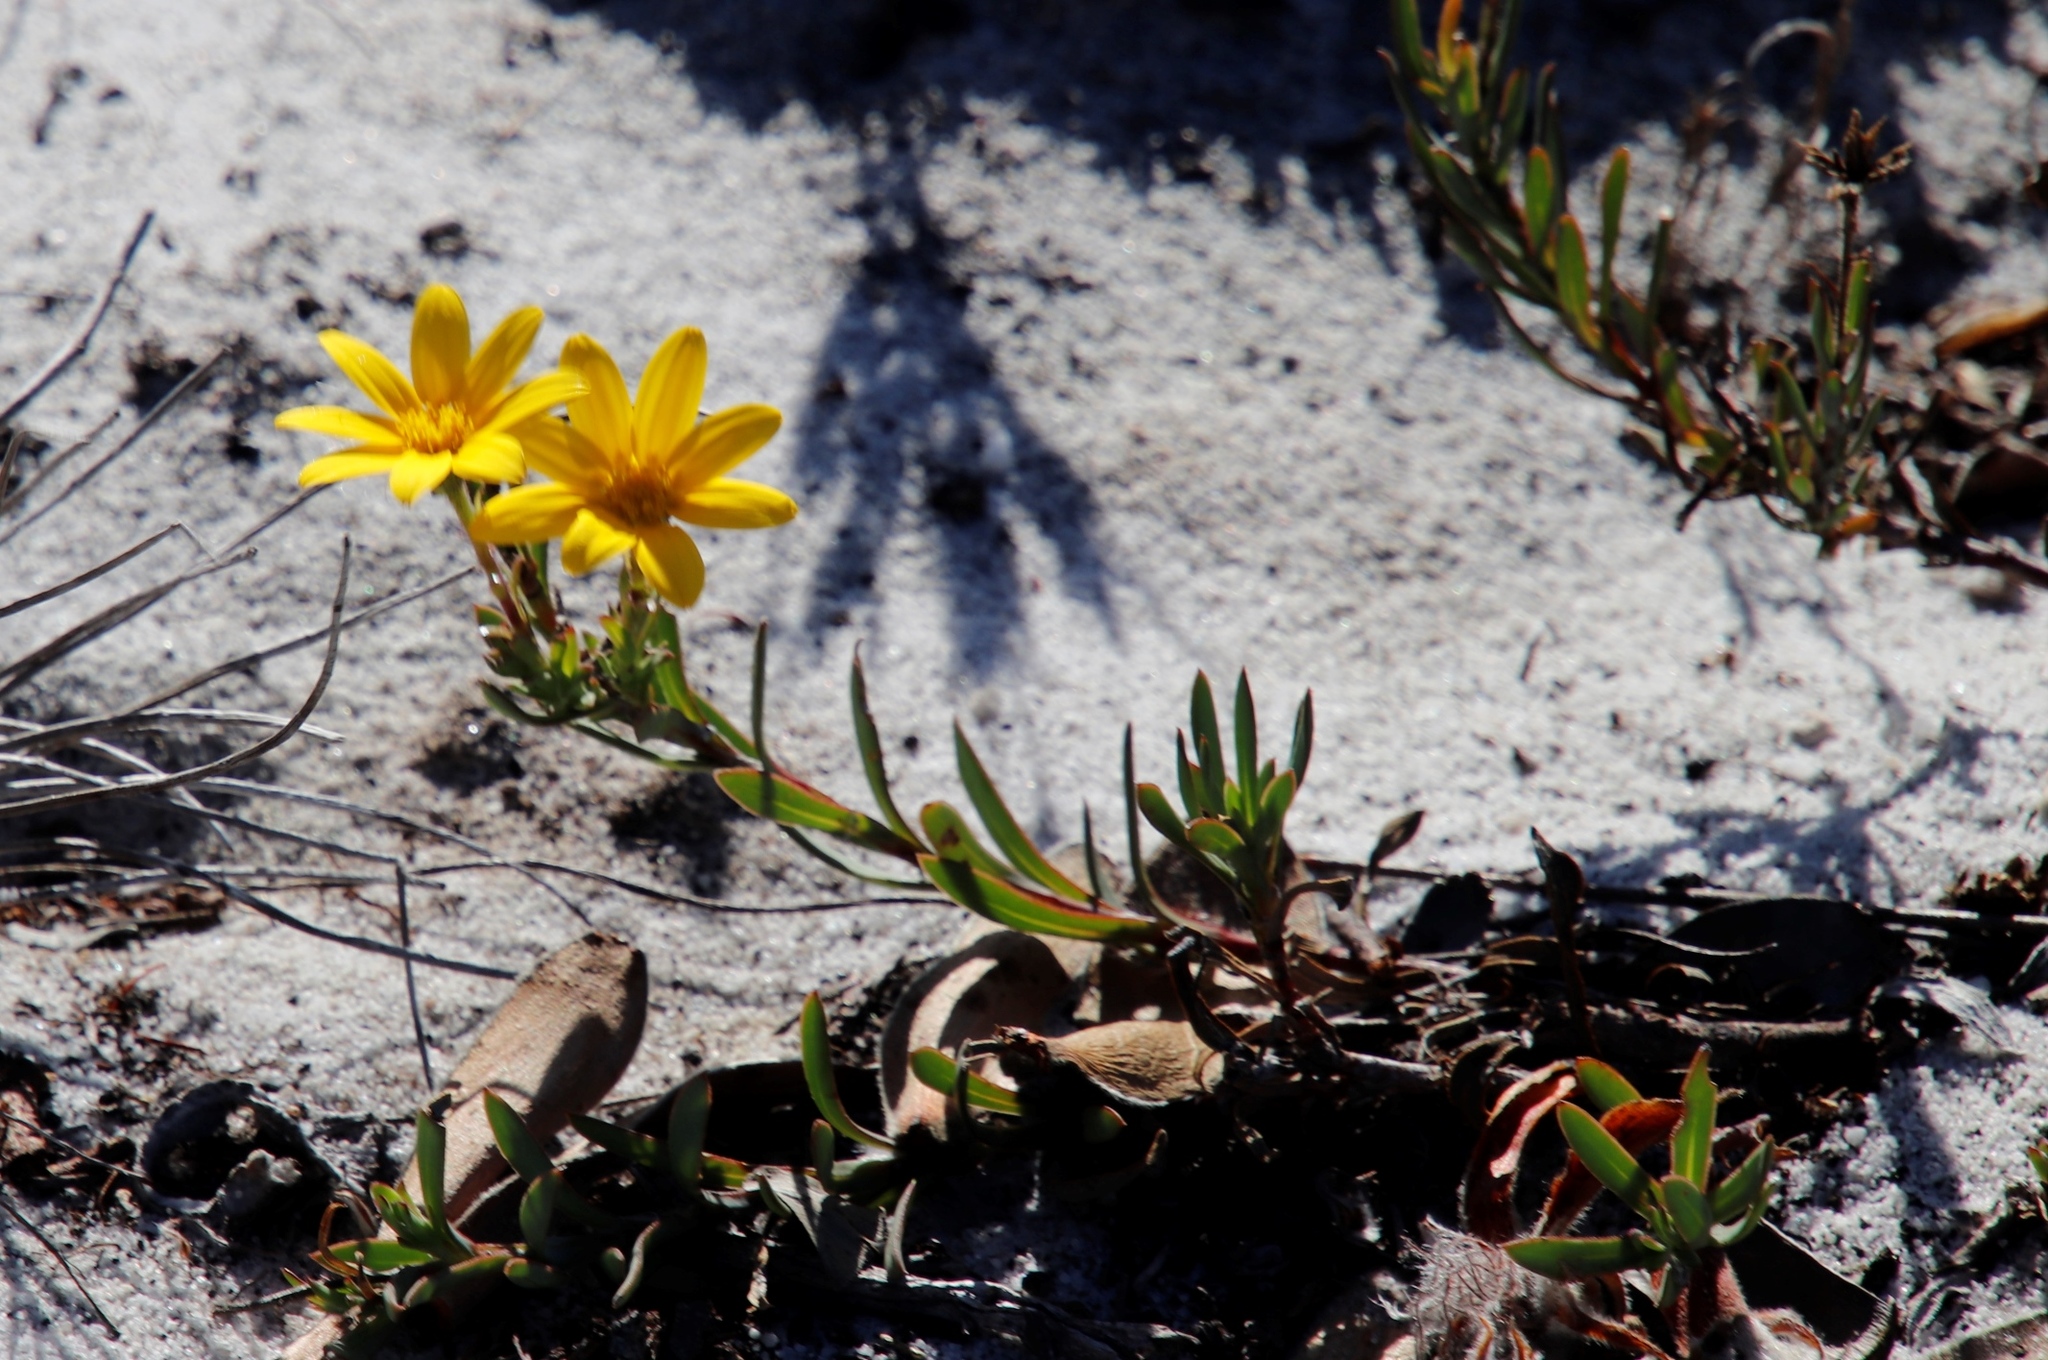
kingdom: Plantae
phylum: Tracheophyta
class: Magnoliopsida
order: Asterales
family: Asteraceae
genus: Osteospermum
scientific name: Osteospermum polygaloides
